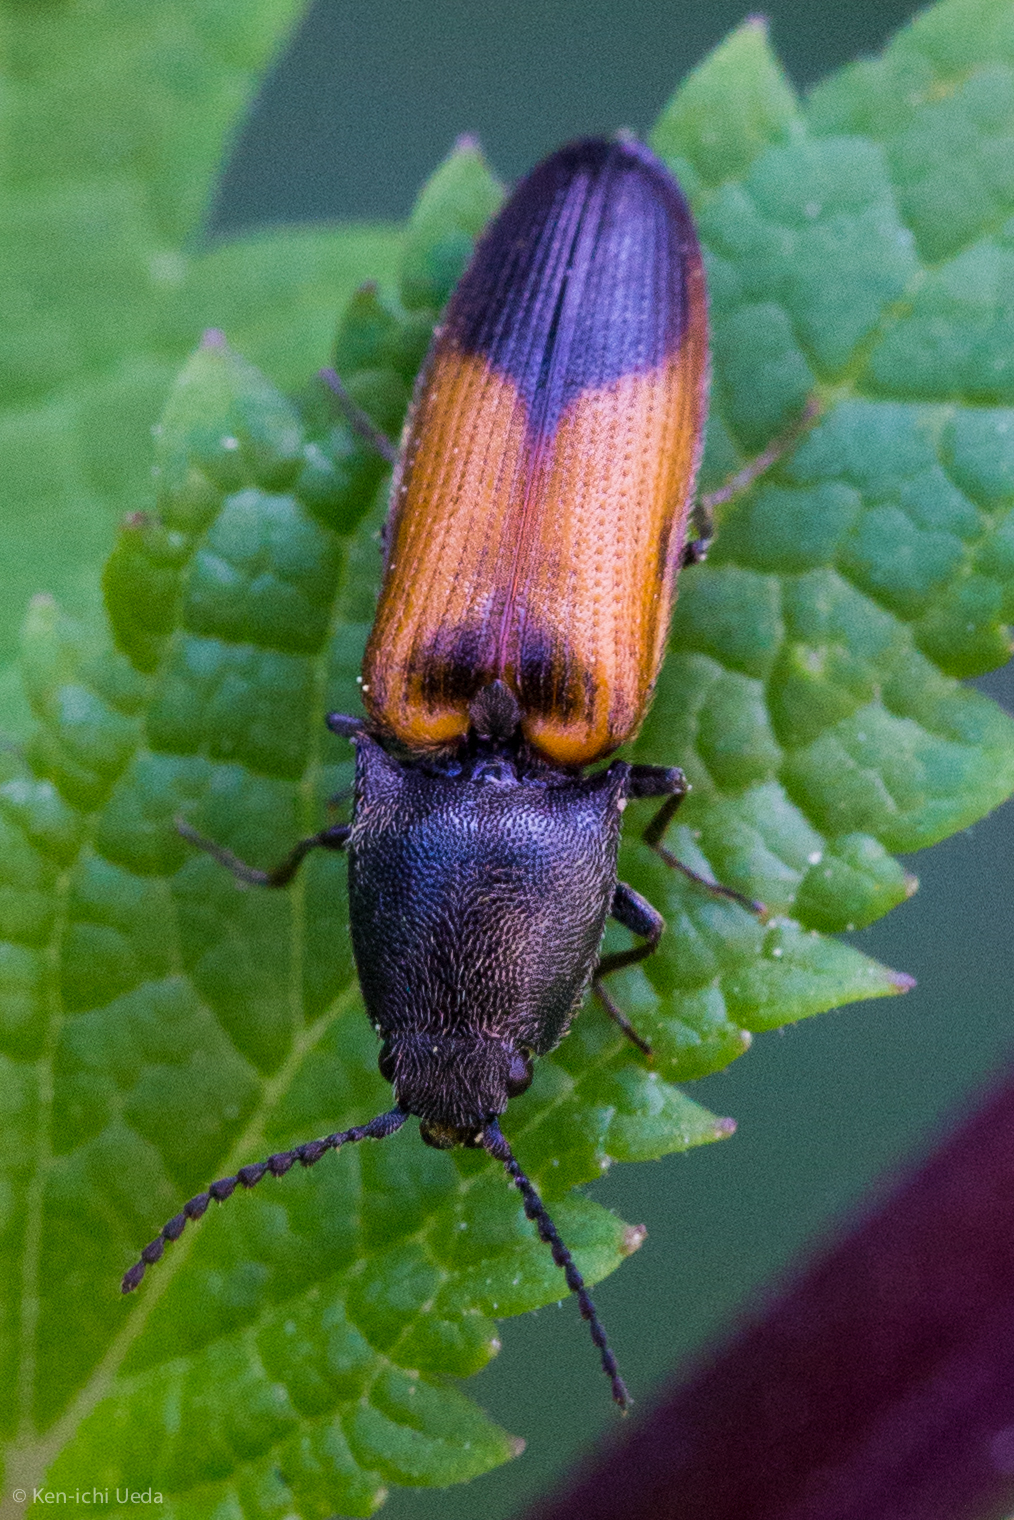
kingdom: Animalia
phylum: Arthropoda
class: Insecta
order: Coleoptera
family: Elateridae
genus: Gambrinus
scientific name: Gambrinus
